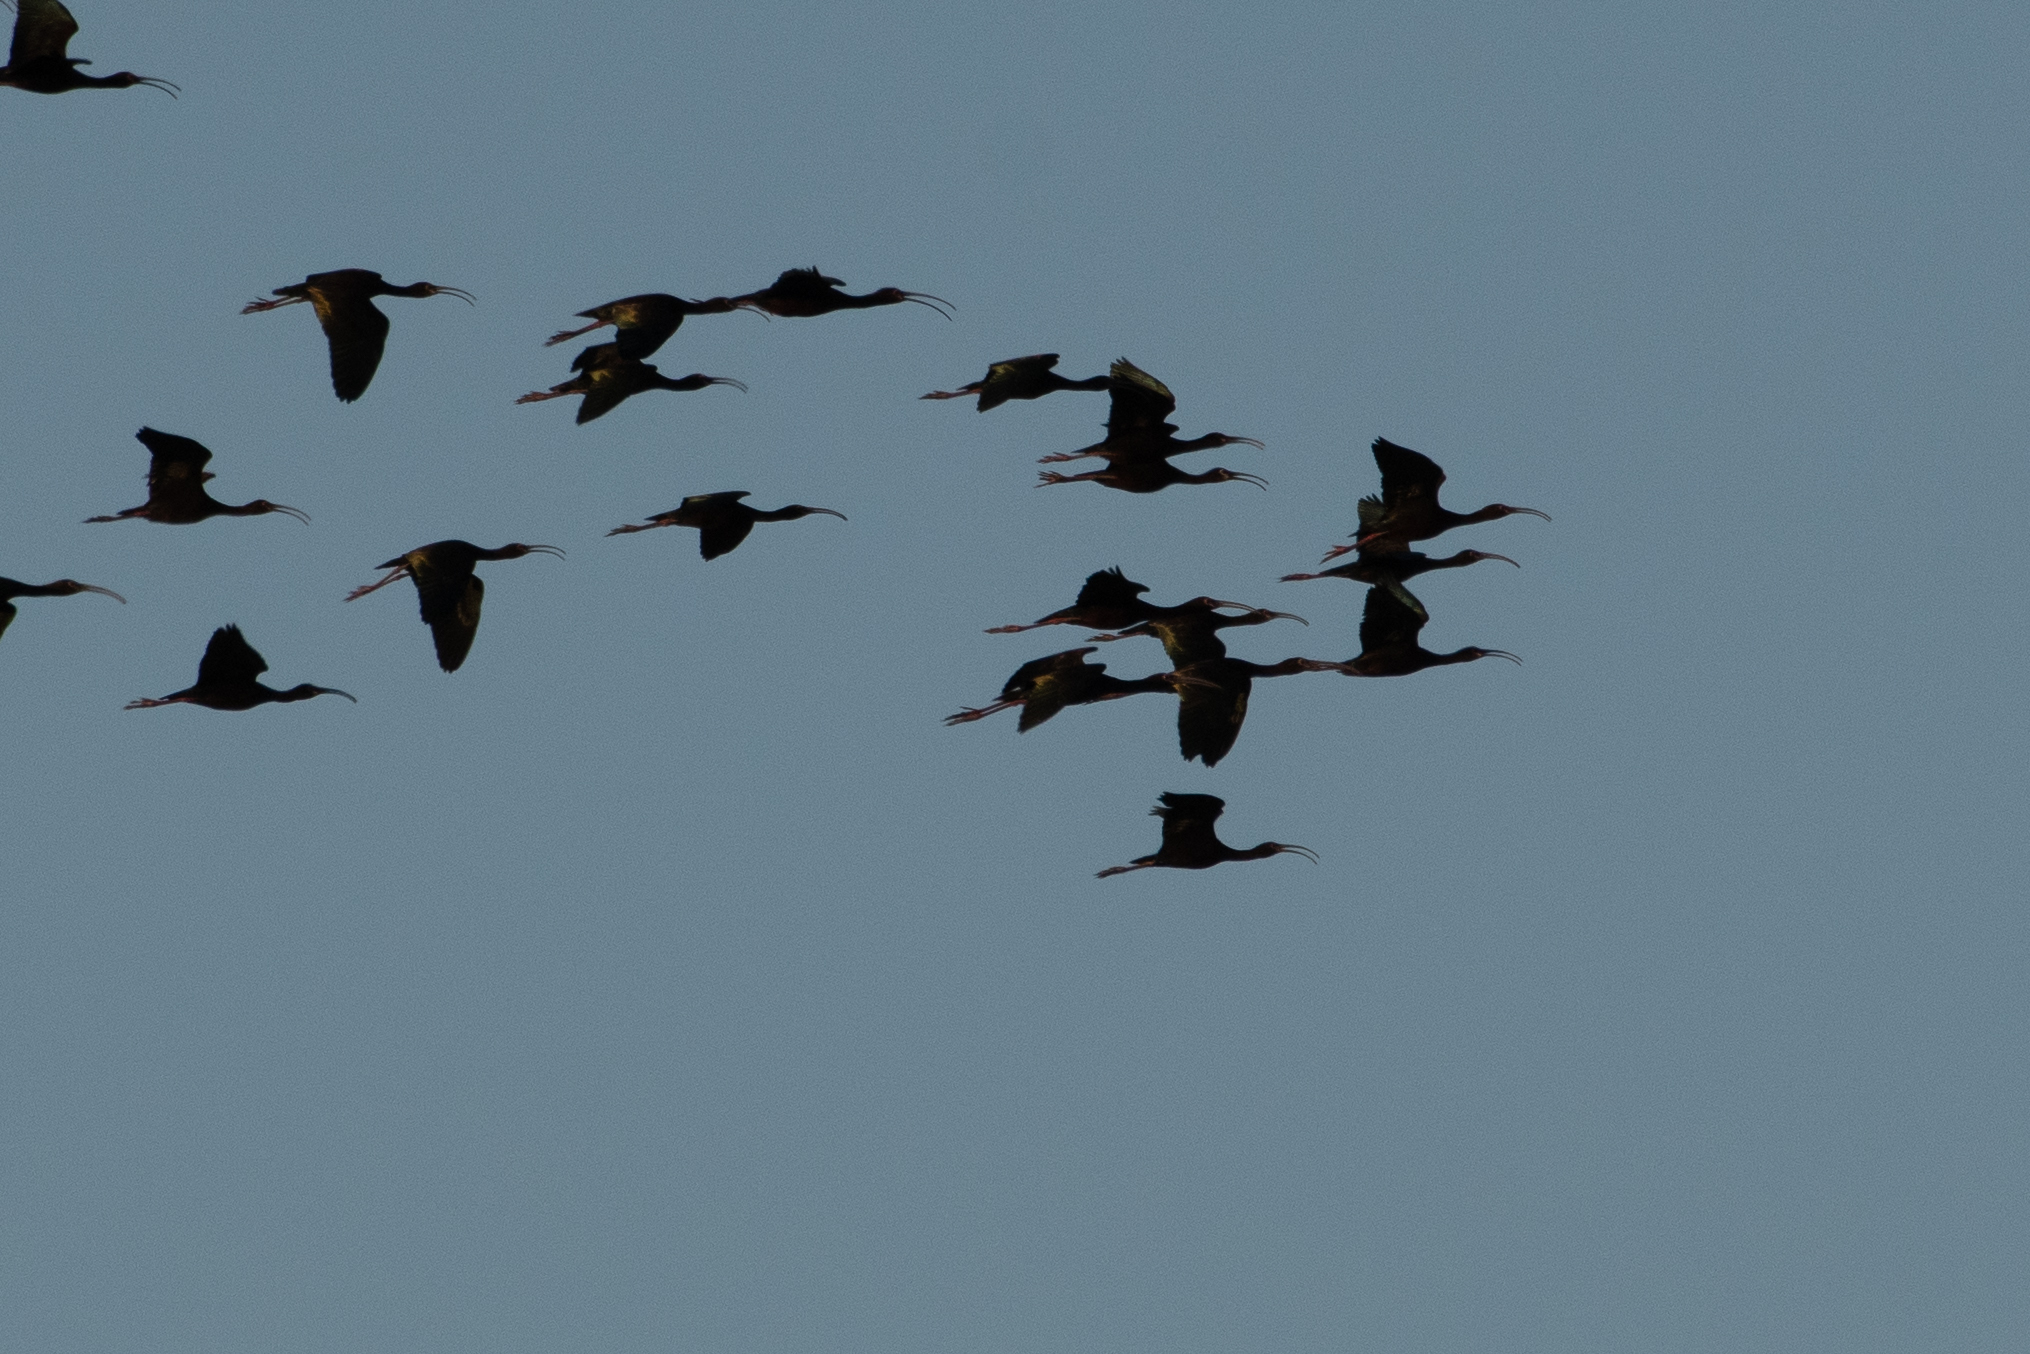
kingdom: Animalia
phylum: Chordata
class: Aves
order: Pelecaniformes
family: Threskiornithidae
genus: Plegadis
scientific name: Plegadis chihi
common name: White-faced ibis
